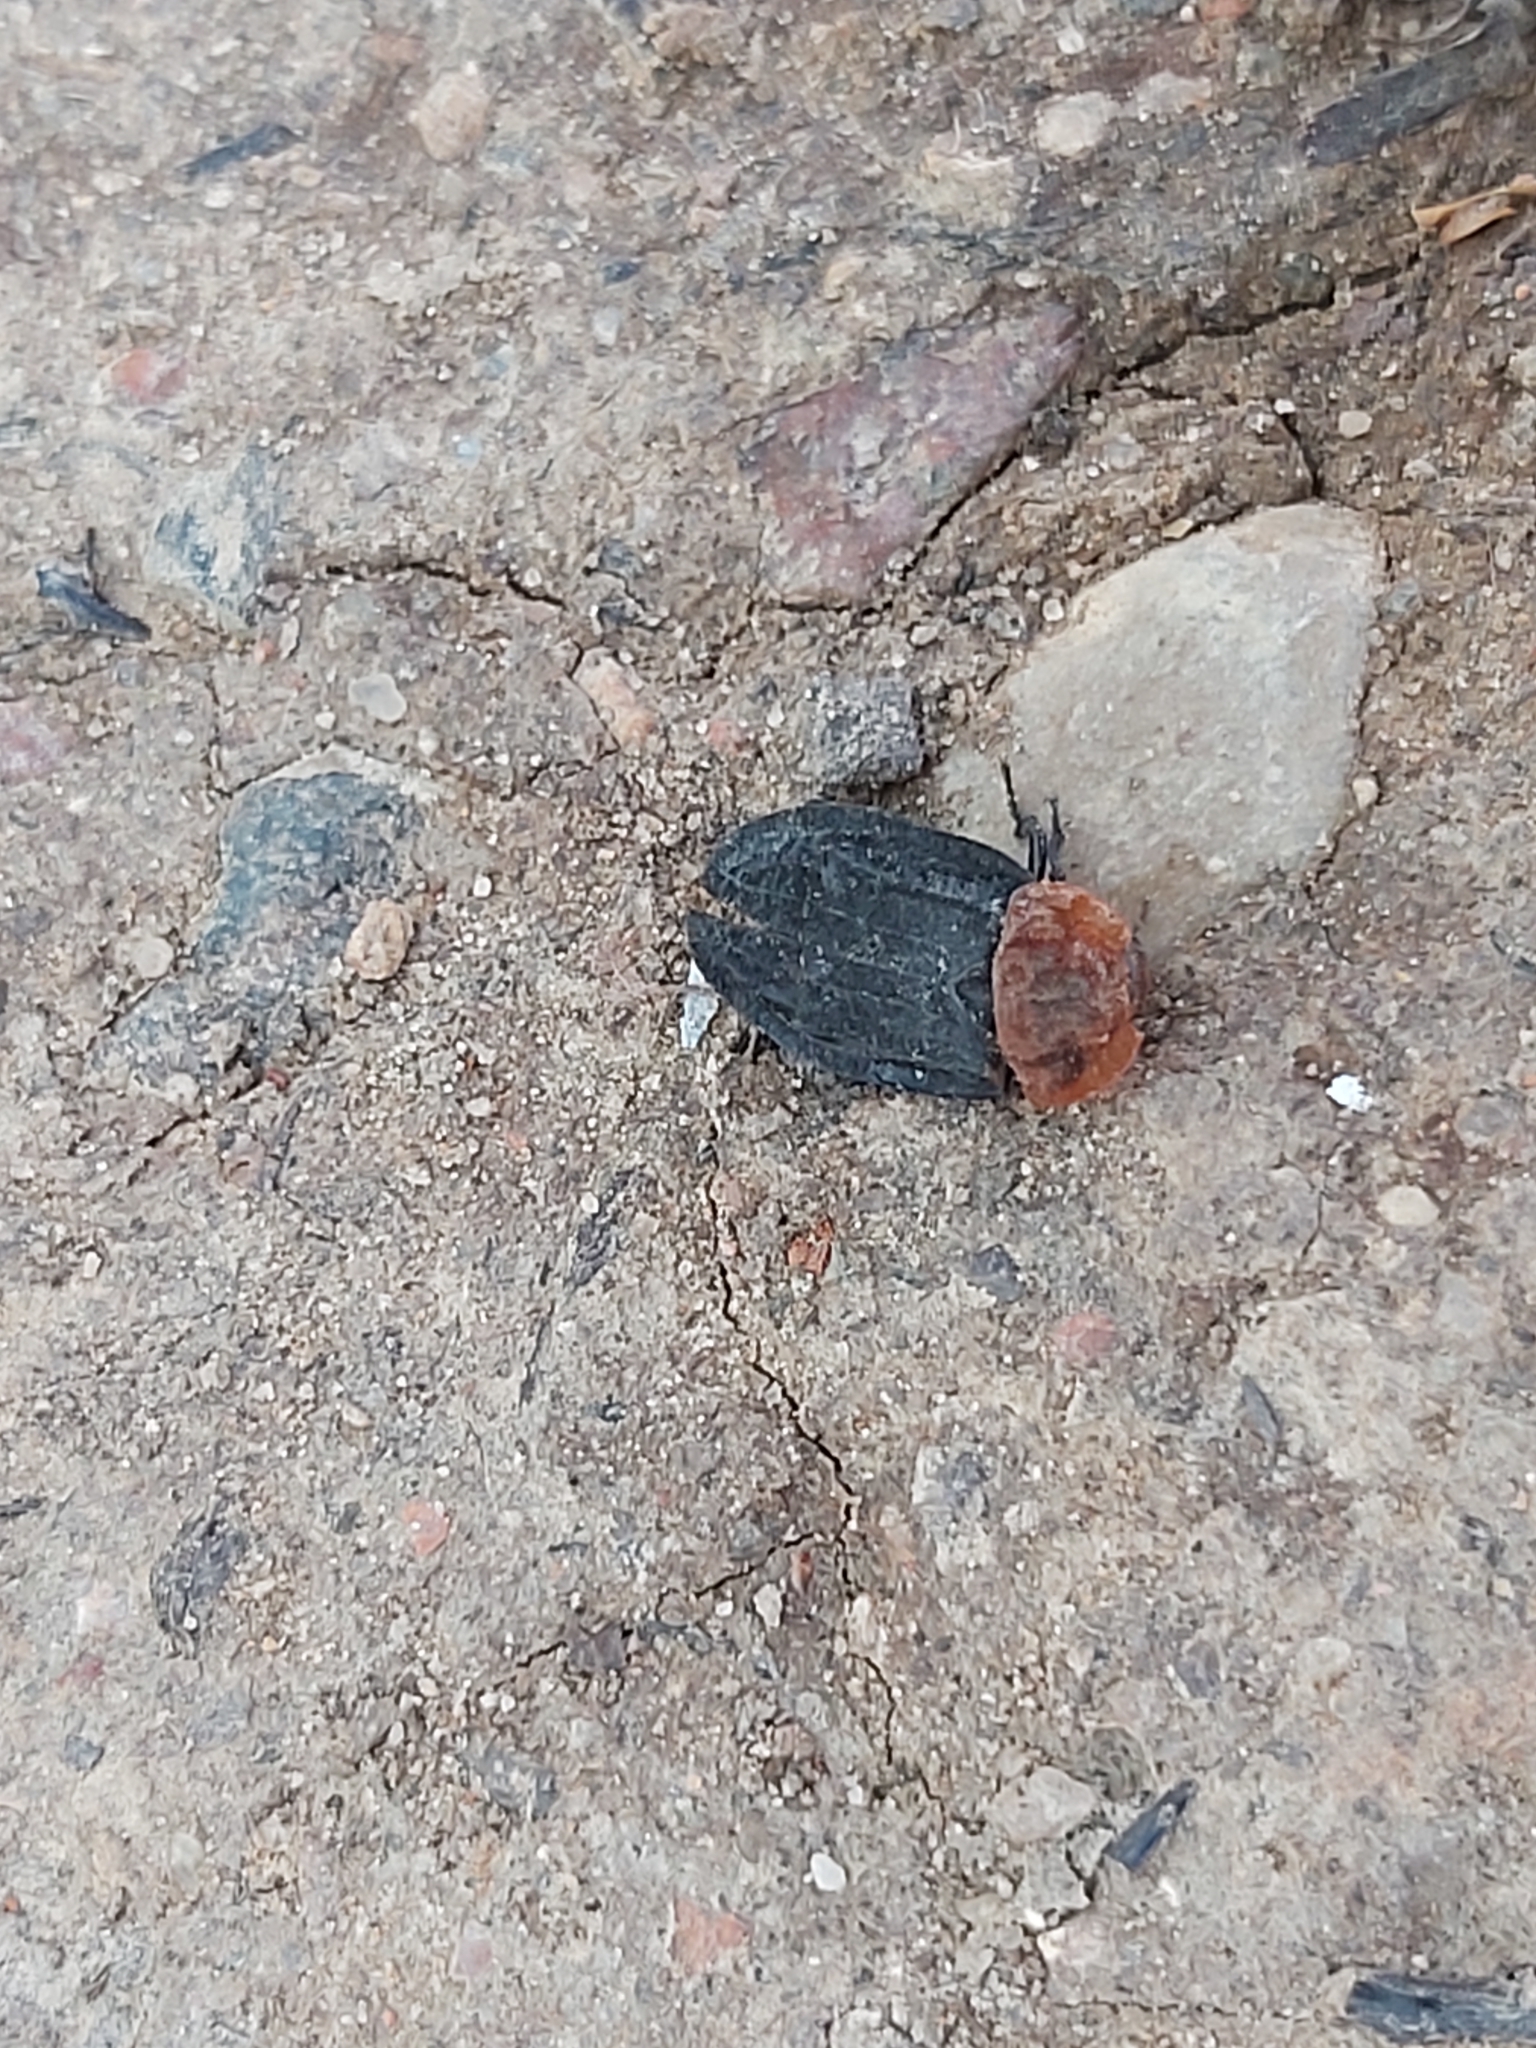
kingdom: Animalia
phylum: Arthropoda
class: Insecta
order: Coleoptera
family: Staphylinidae
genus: Oiceoptoma
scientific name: Oiceoptoma thoracicum
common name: Red-breasted carrion beetle
